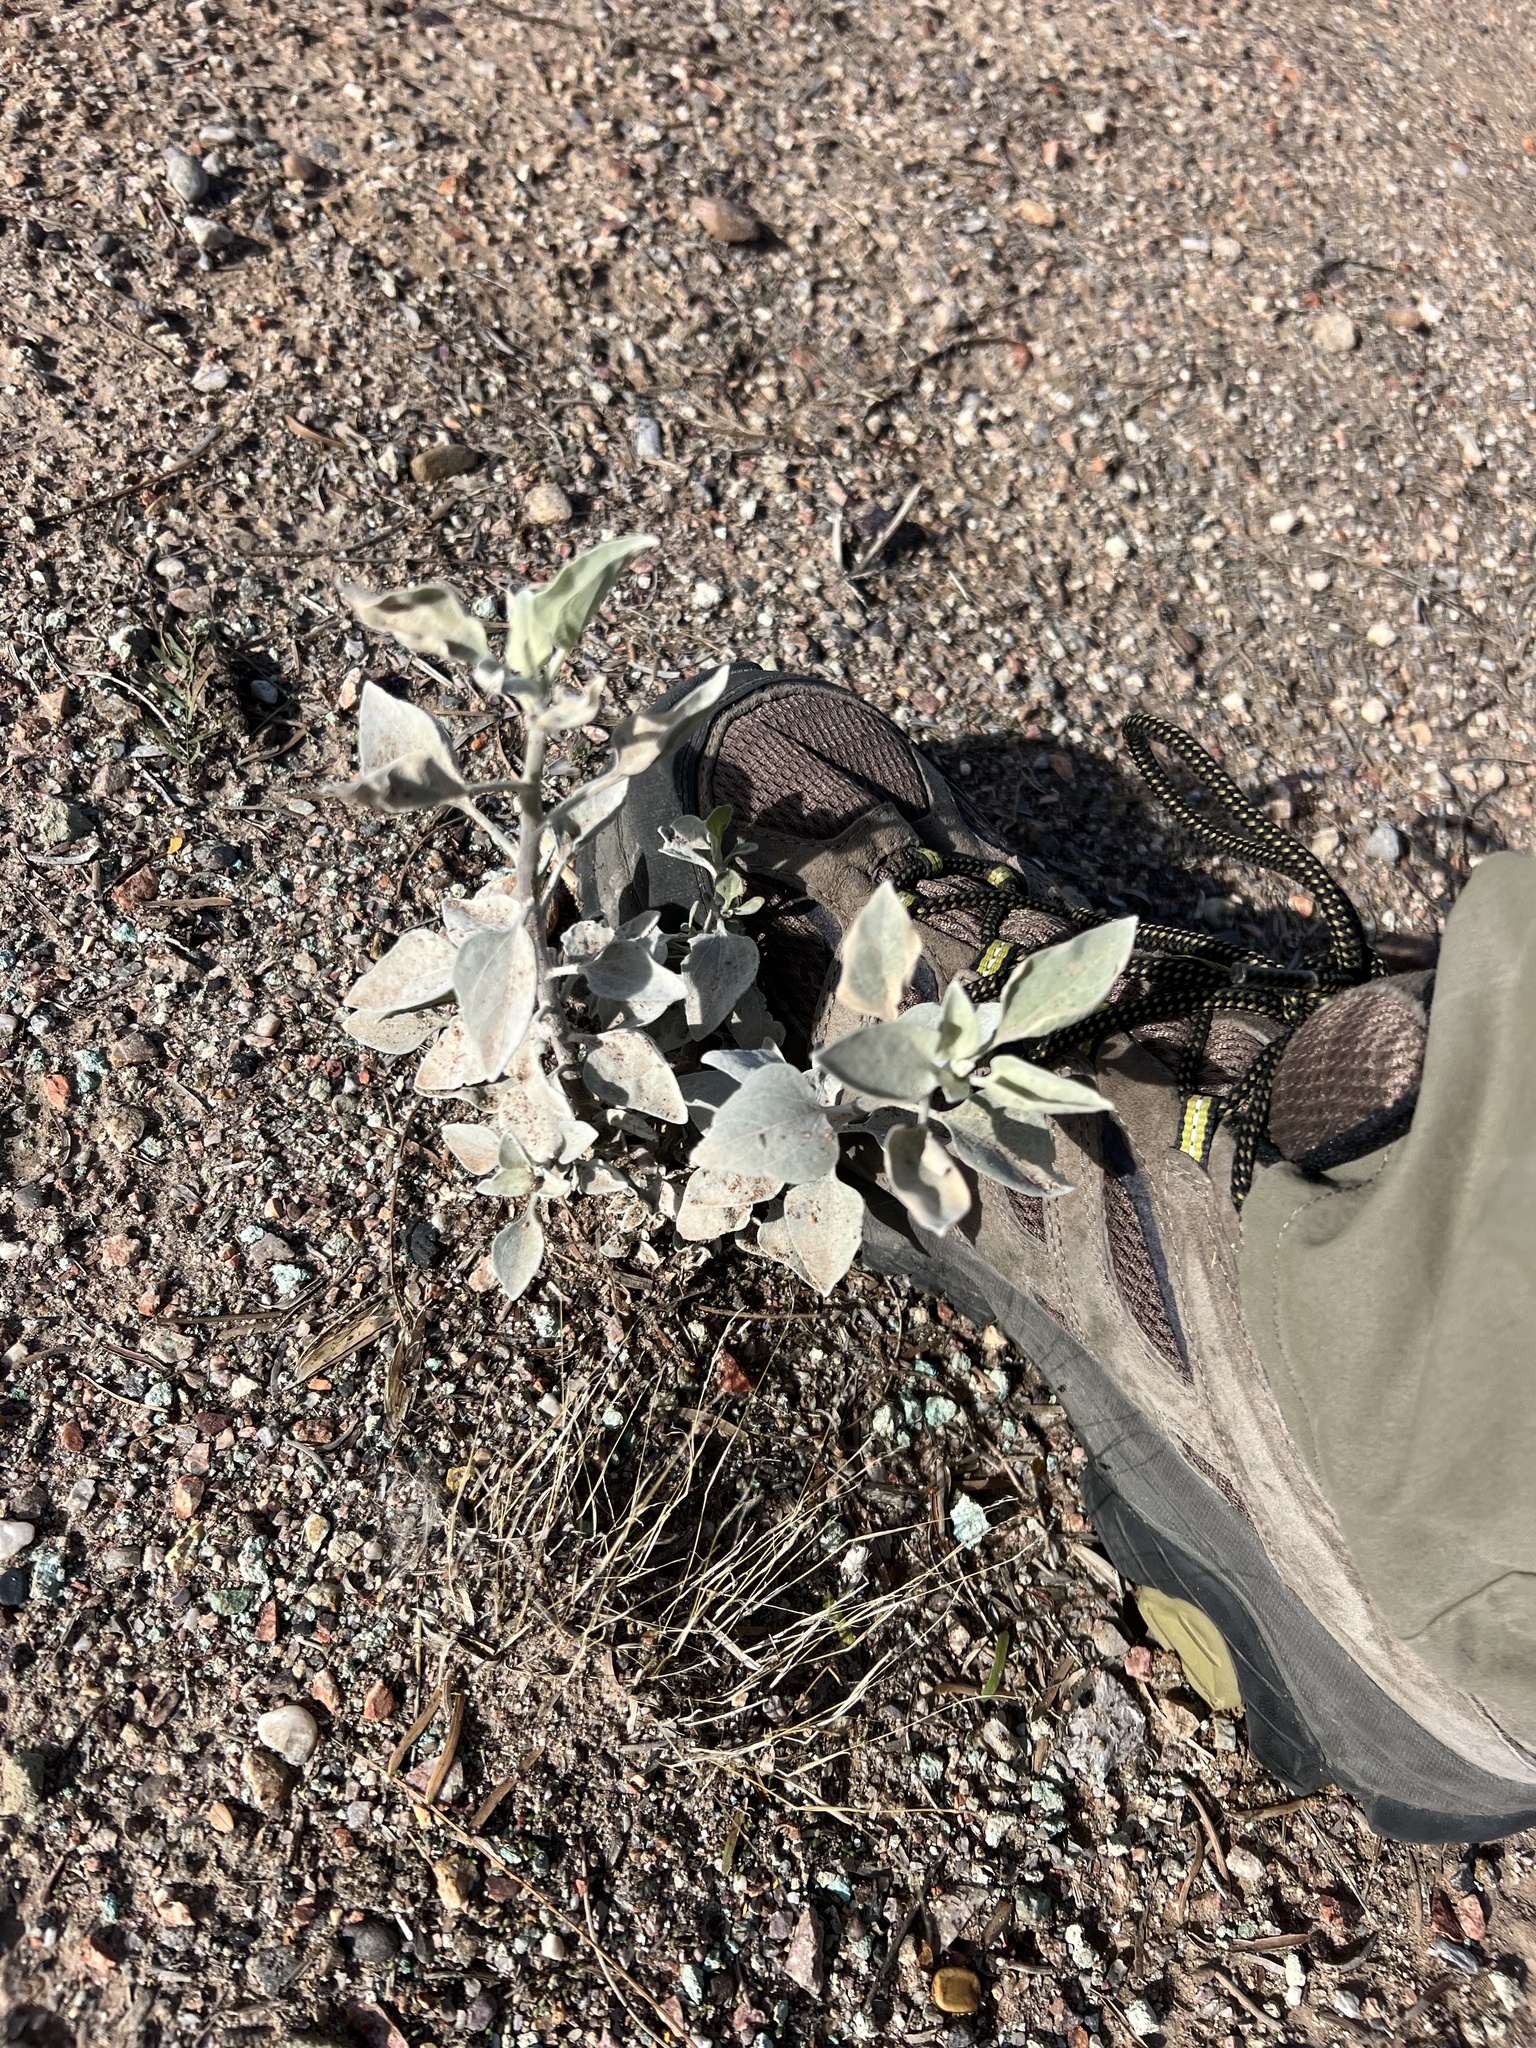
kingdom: Plantae
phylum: Tracheophyta
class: Magnoliopsida
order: Asterales
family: Asteraceae
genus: Encelia
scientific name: Encelia farinosa
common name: Brittlebush
